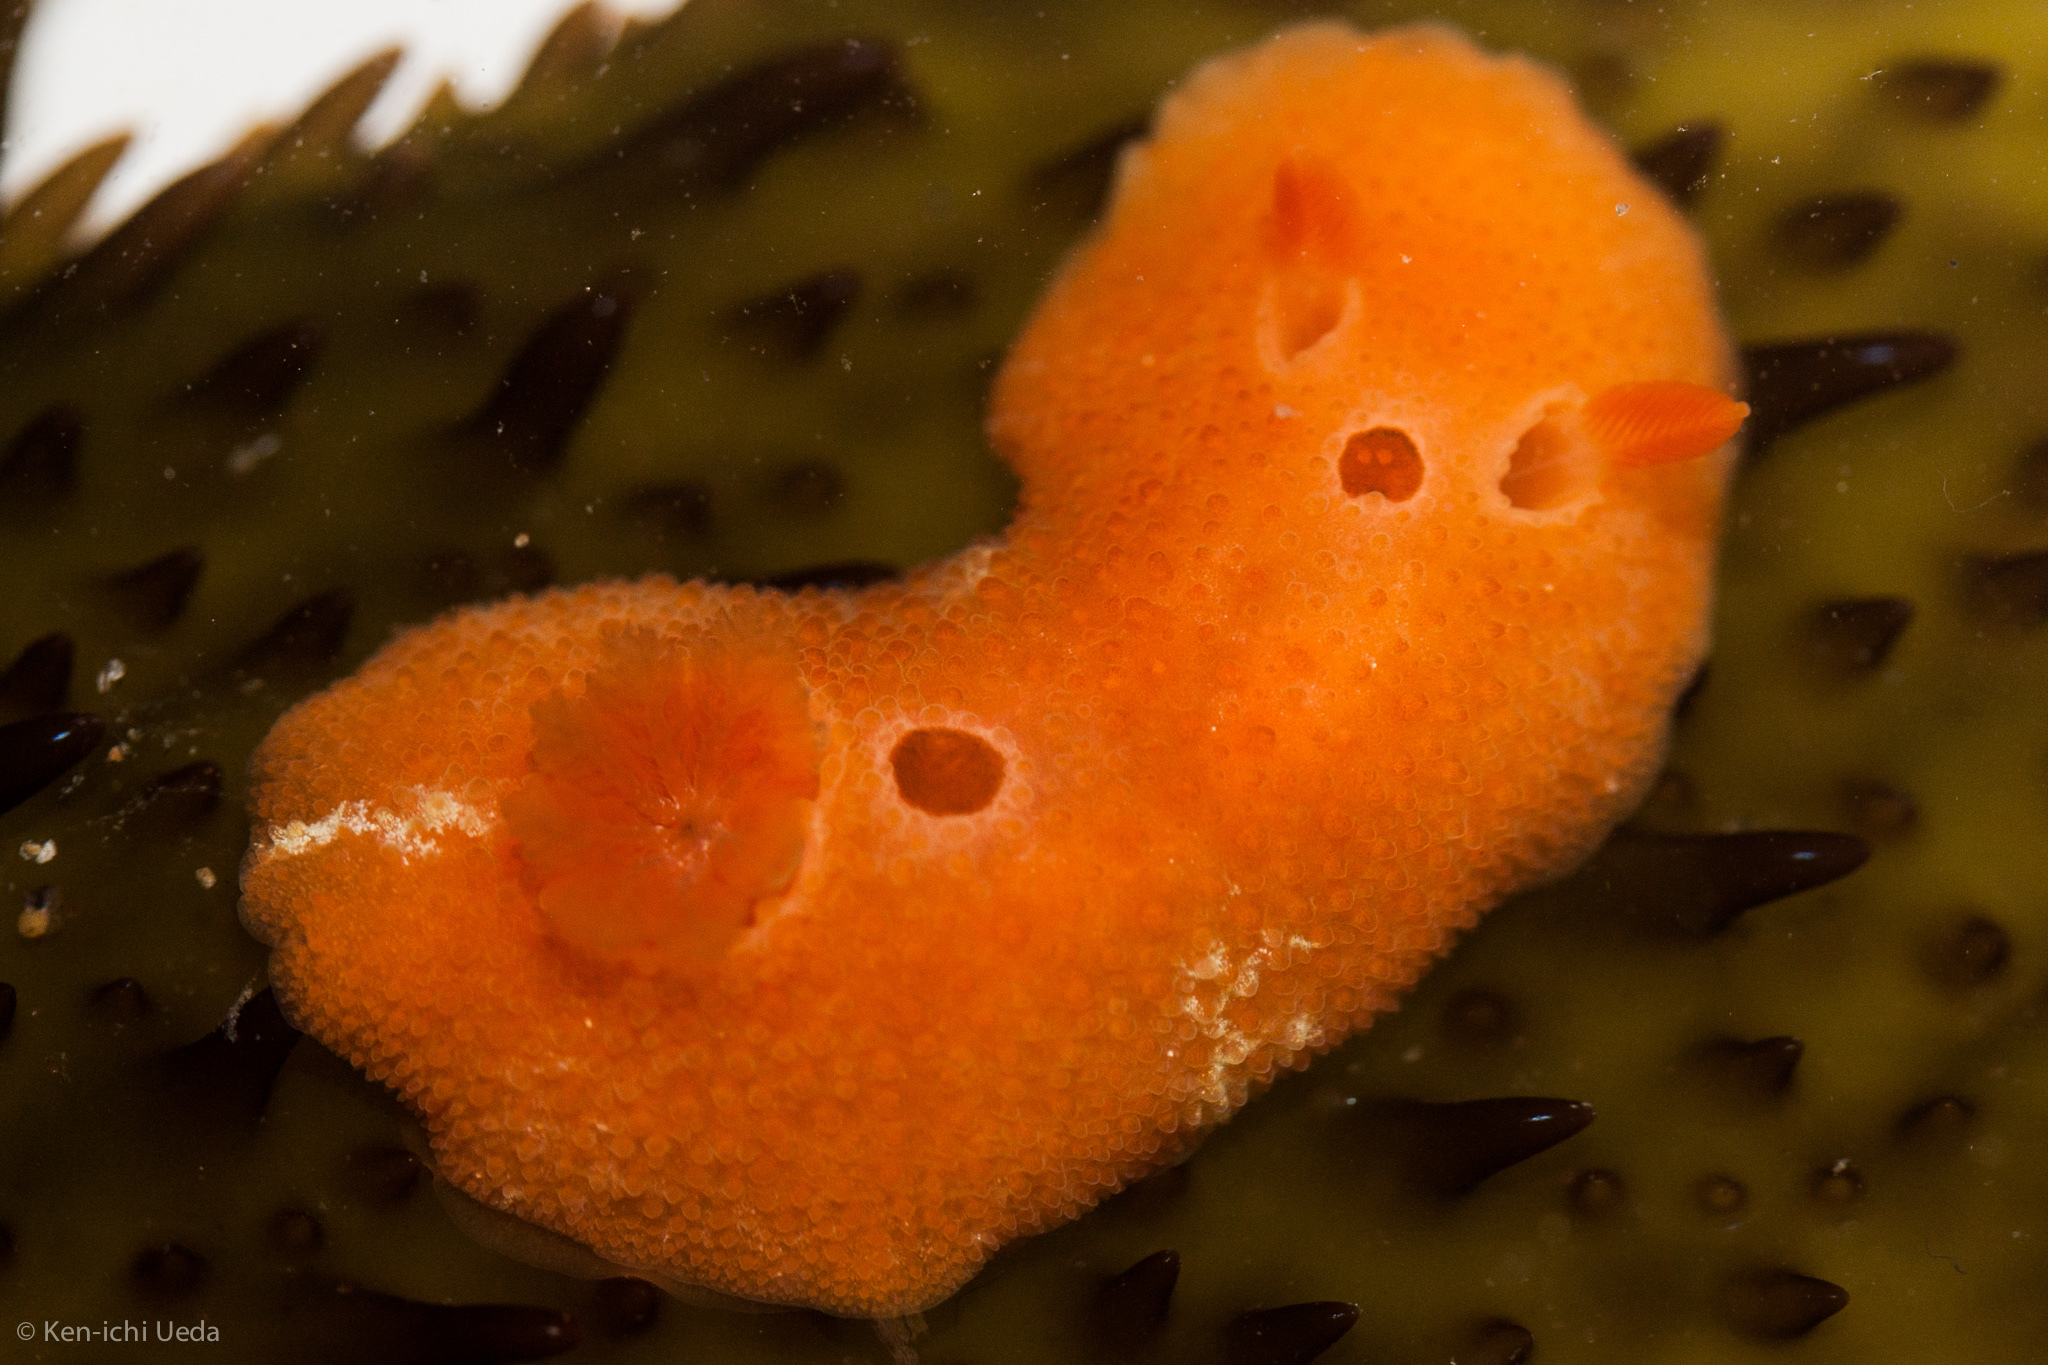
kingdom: Animalia
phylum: Mollusca
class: Gastropoda
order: Nudibranchia
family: Cadlinidae
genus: Aldisa
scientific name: Aldisa sanguinea
